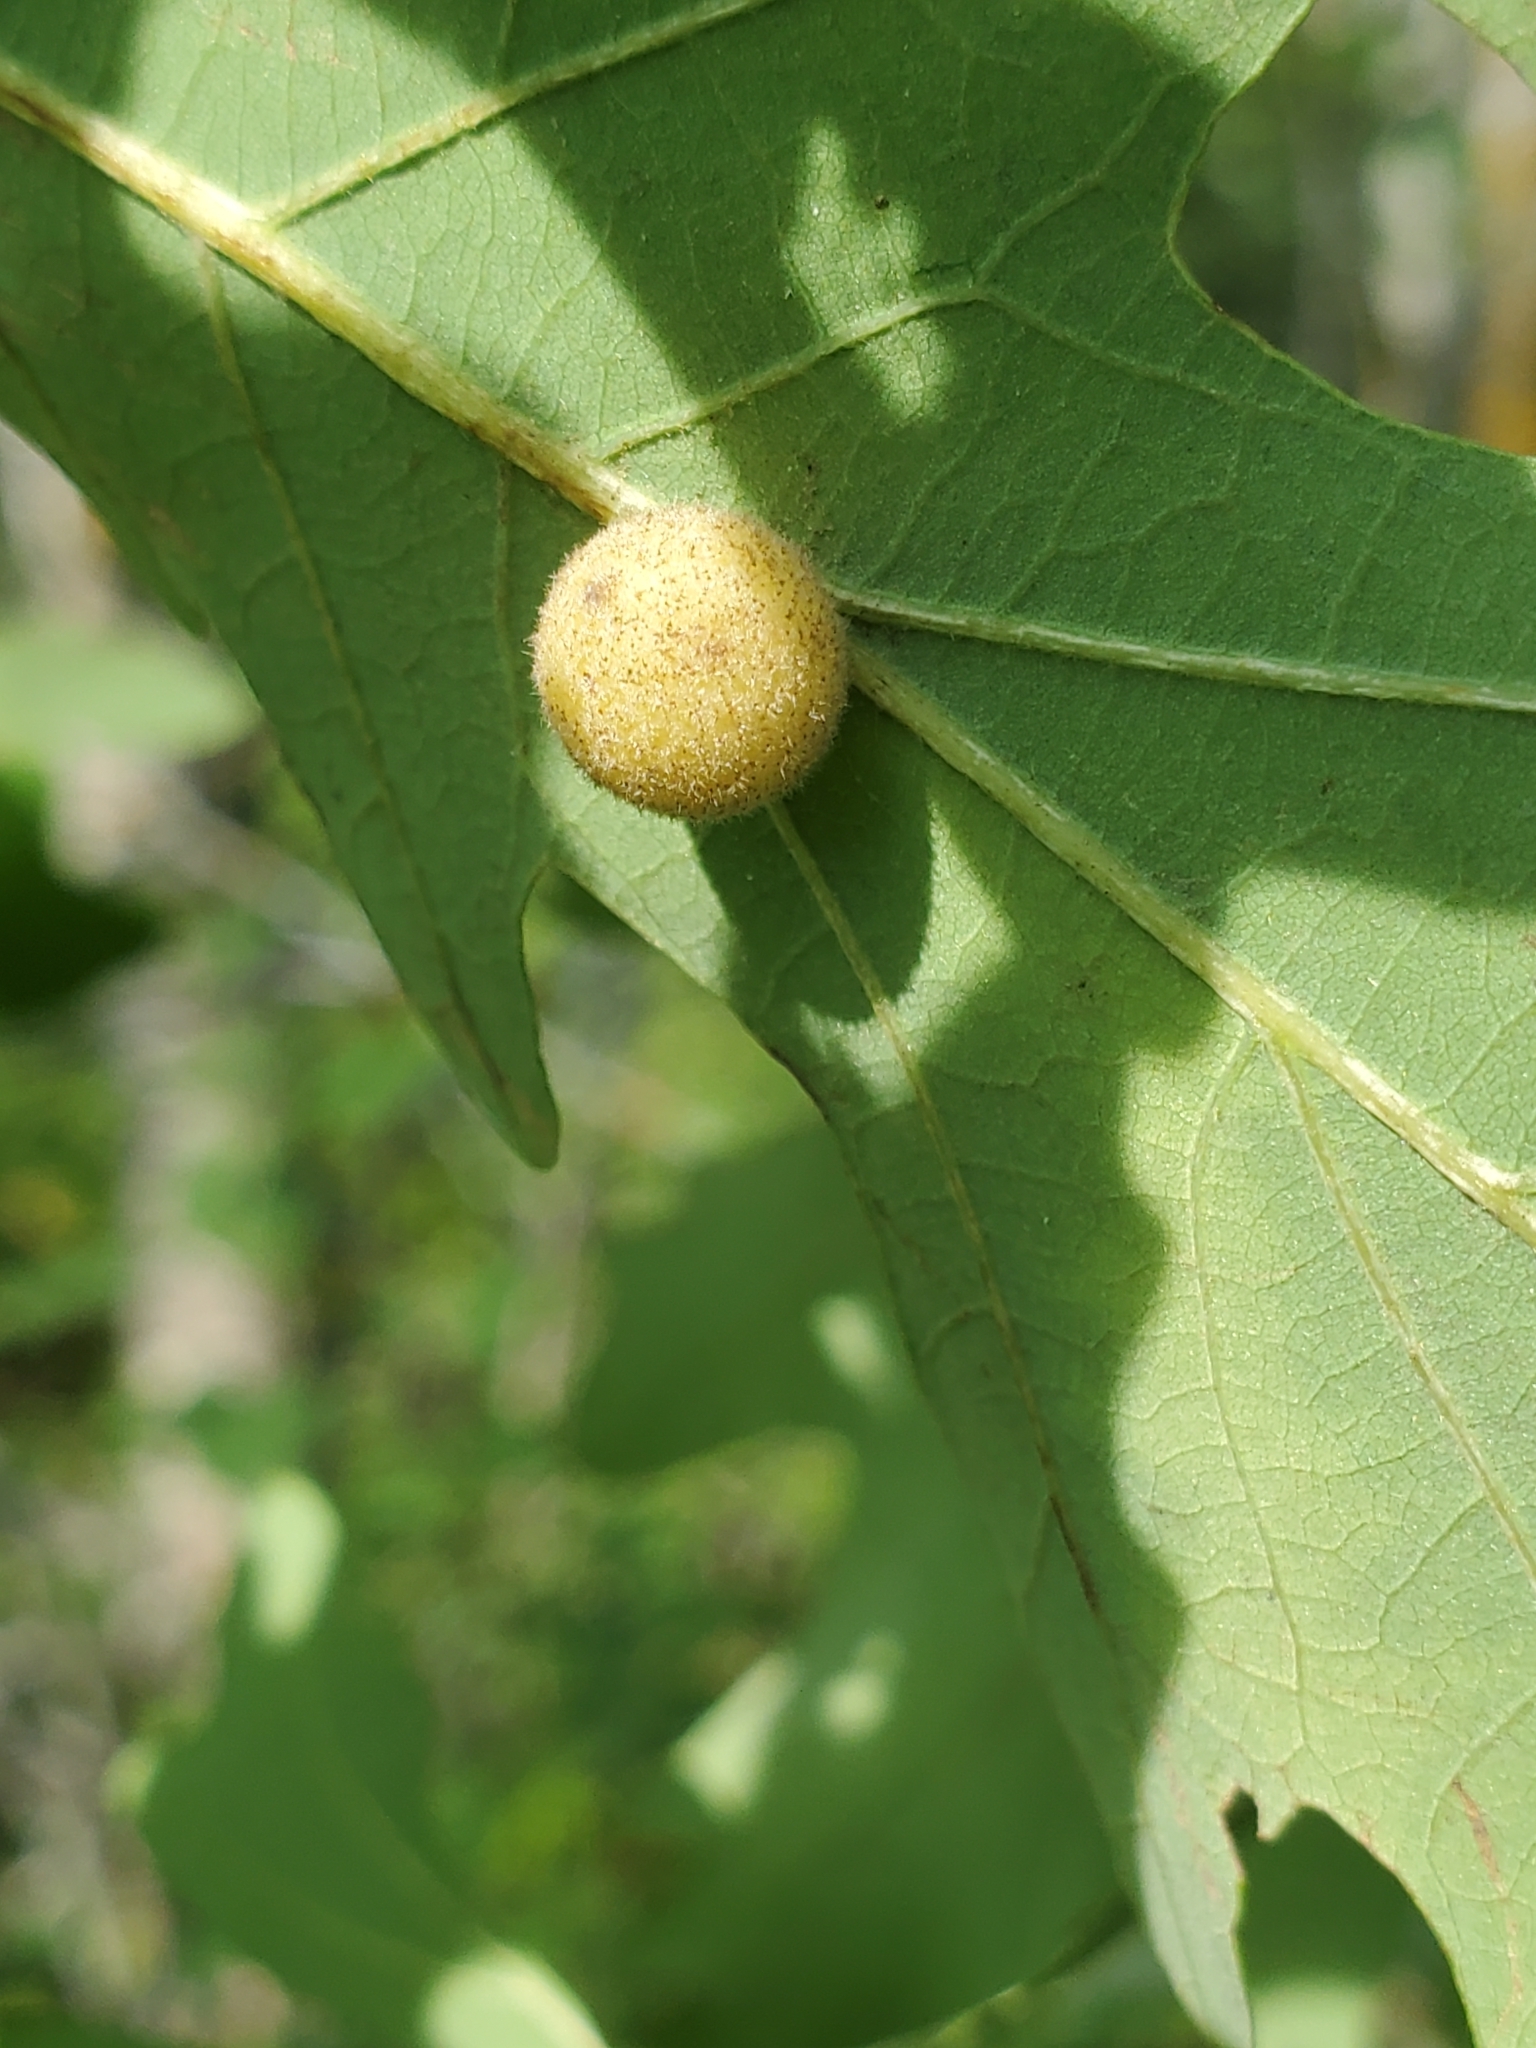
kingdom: Animalia
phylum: Arthropoda
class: Insecta
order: Hymenoptera
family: Cynipidae
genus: Philonix
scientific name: Philonix fulvicollis
